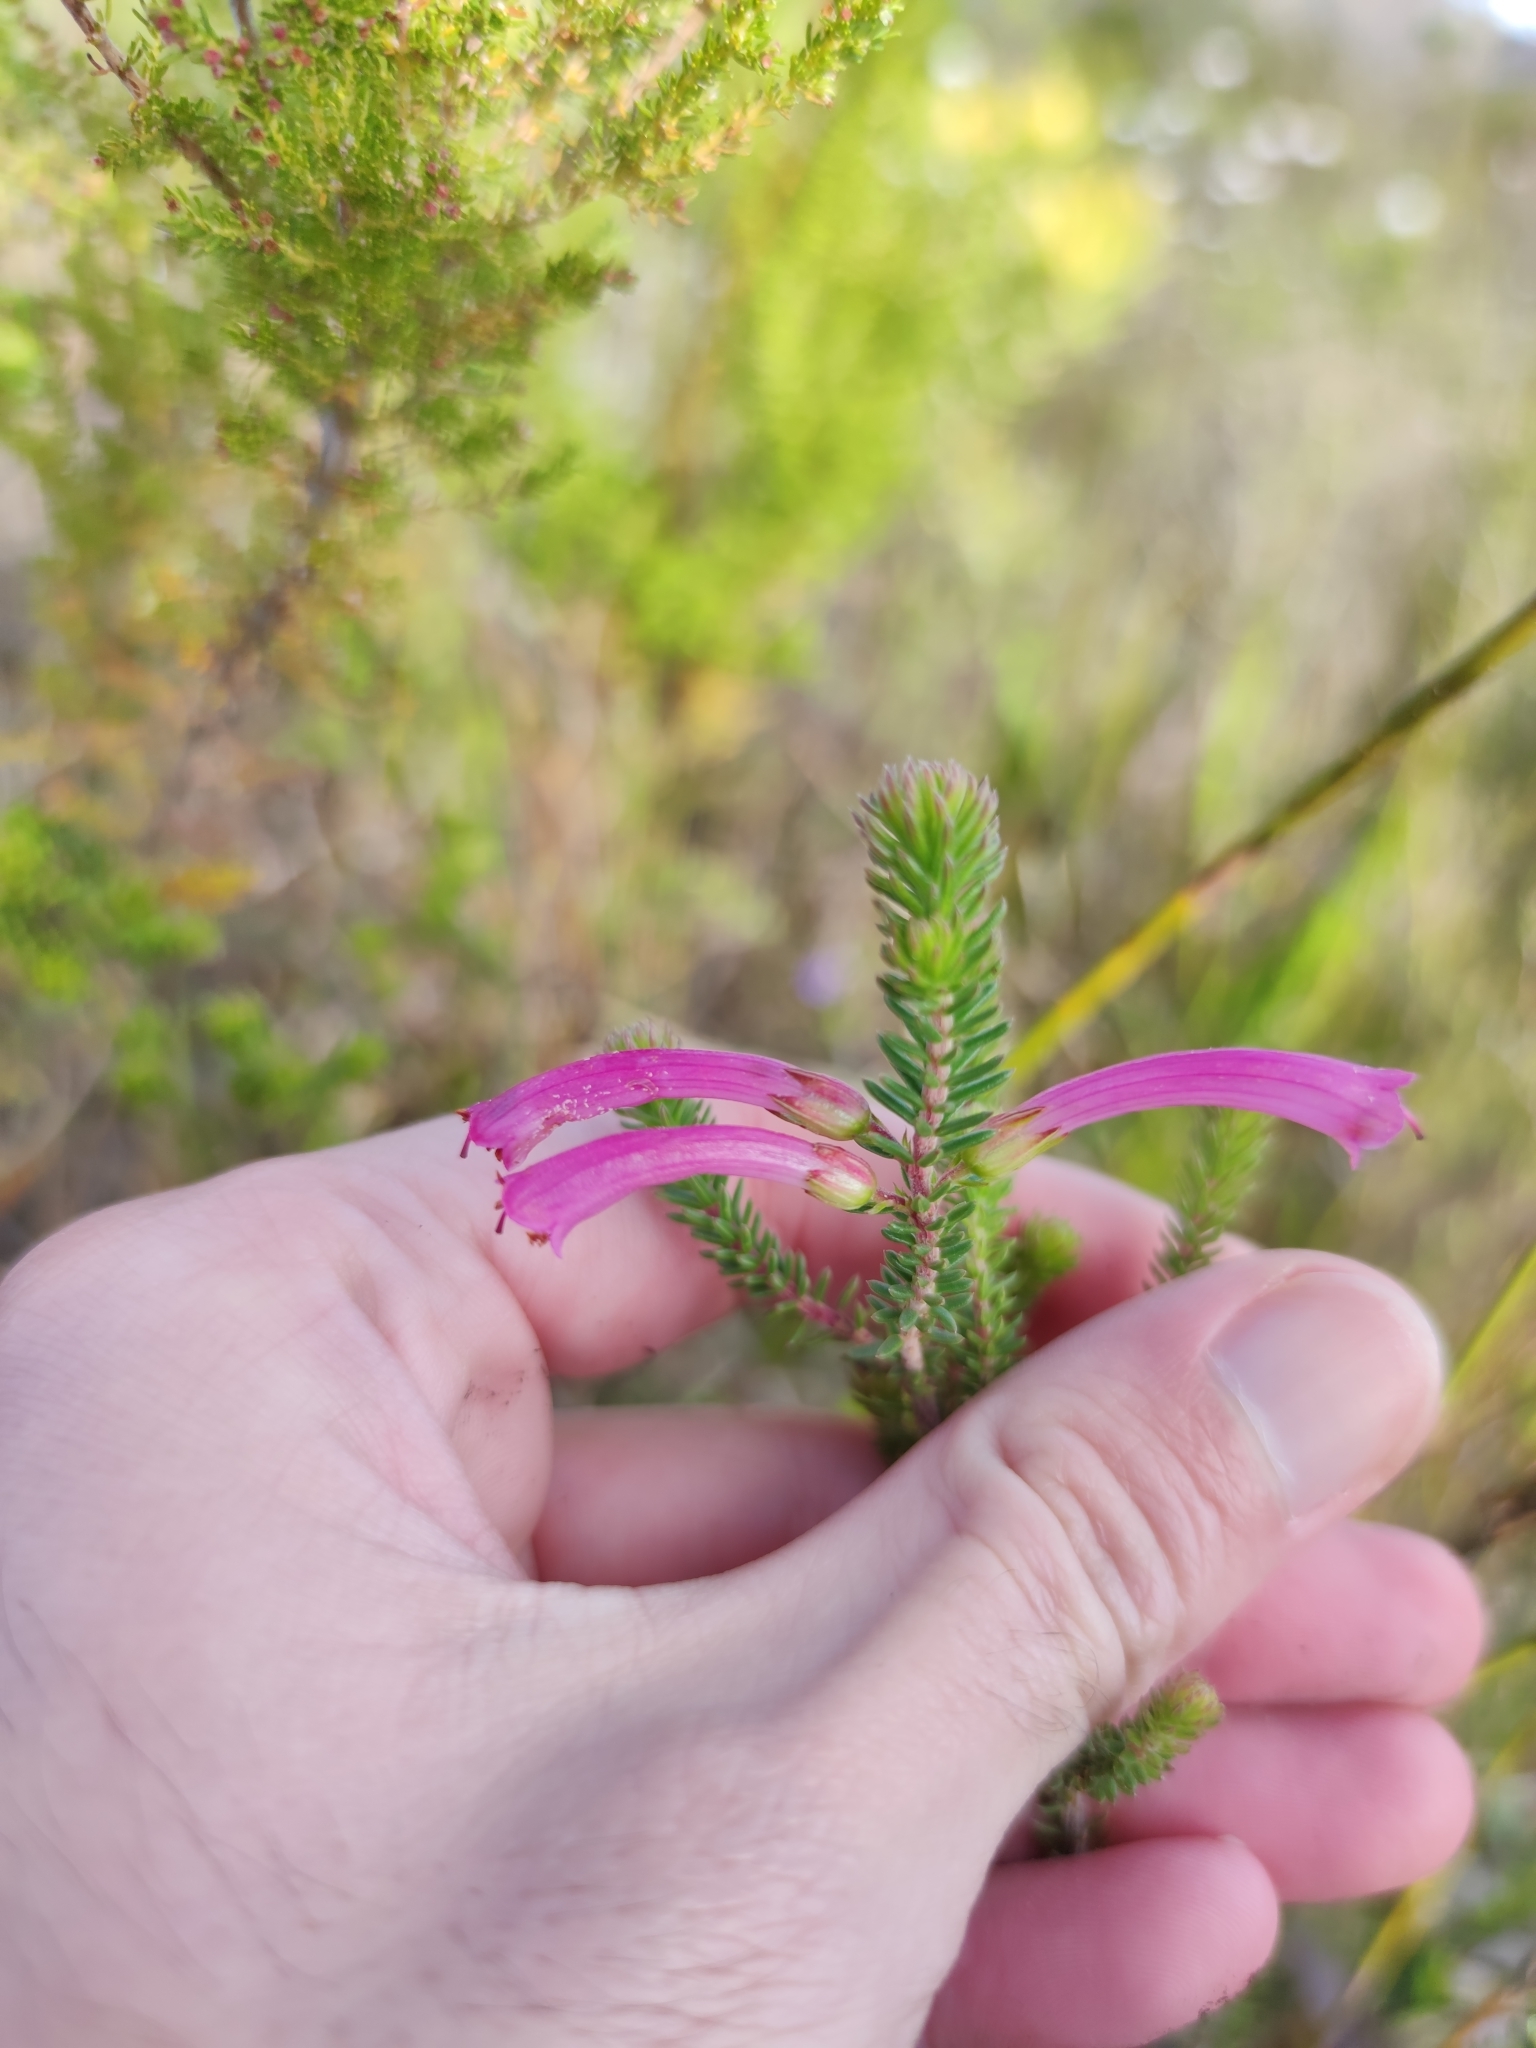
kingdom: Plantae
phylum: Tracheophyta
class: Magnoliopsida
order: Ericales
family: Ericaceae
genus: Erica
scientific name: Erica abietina
